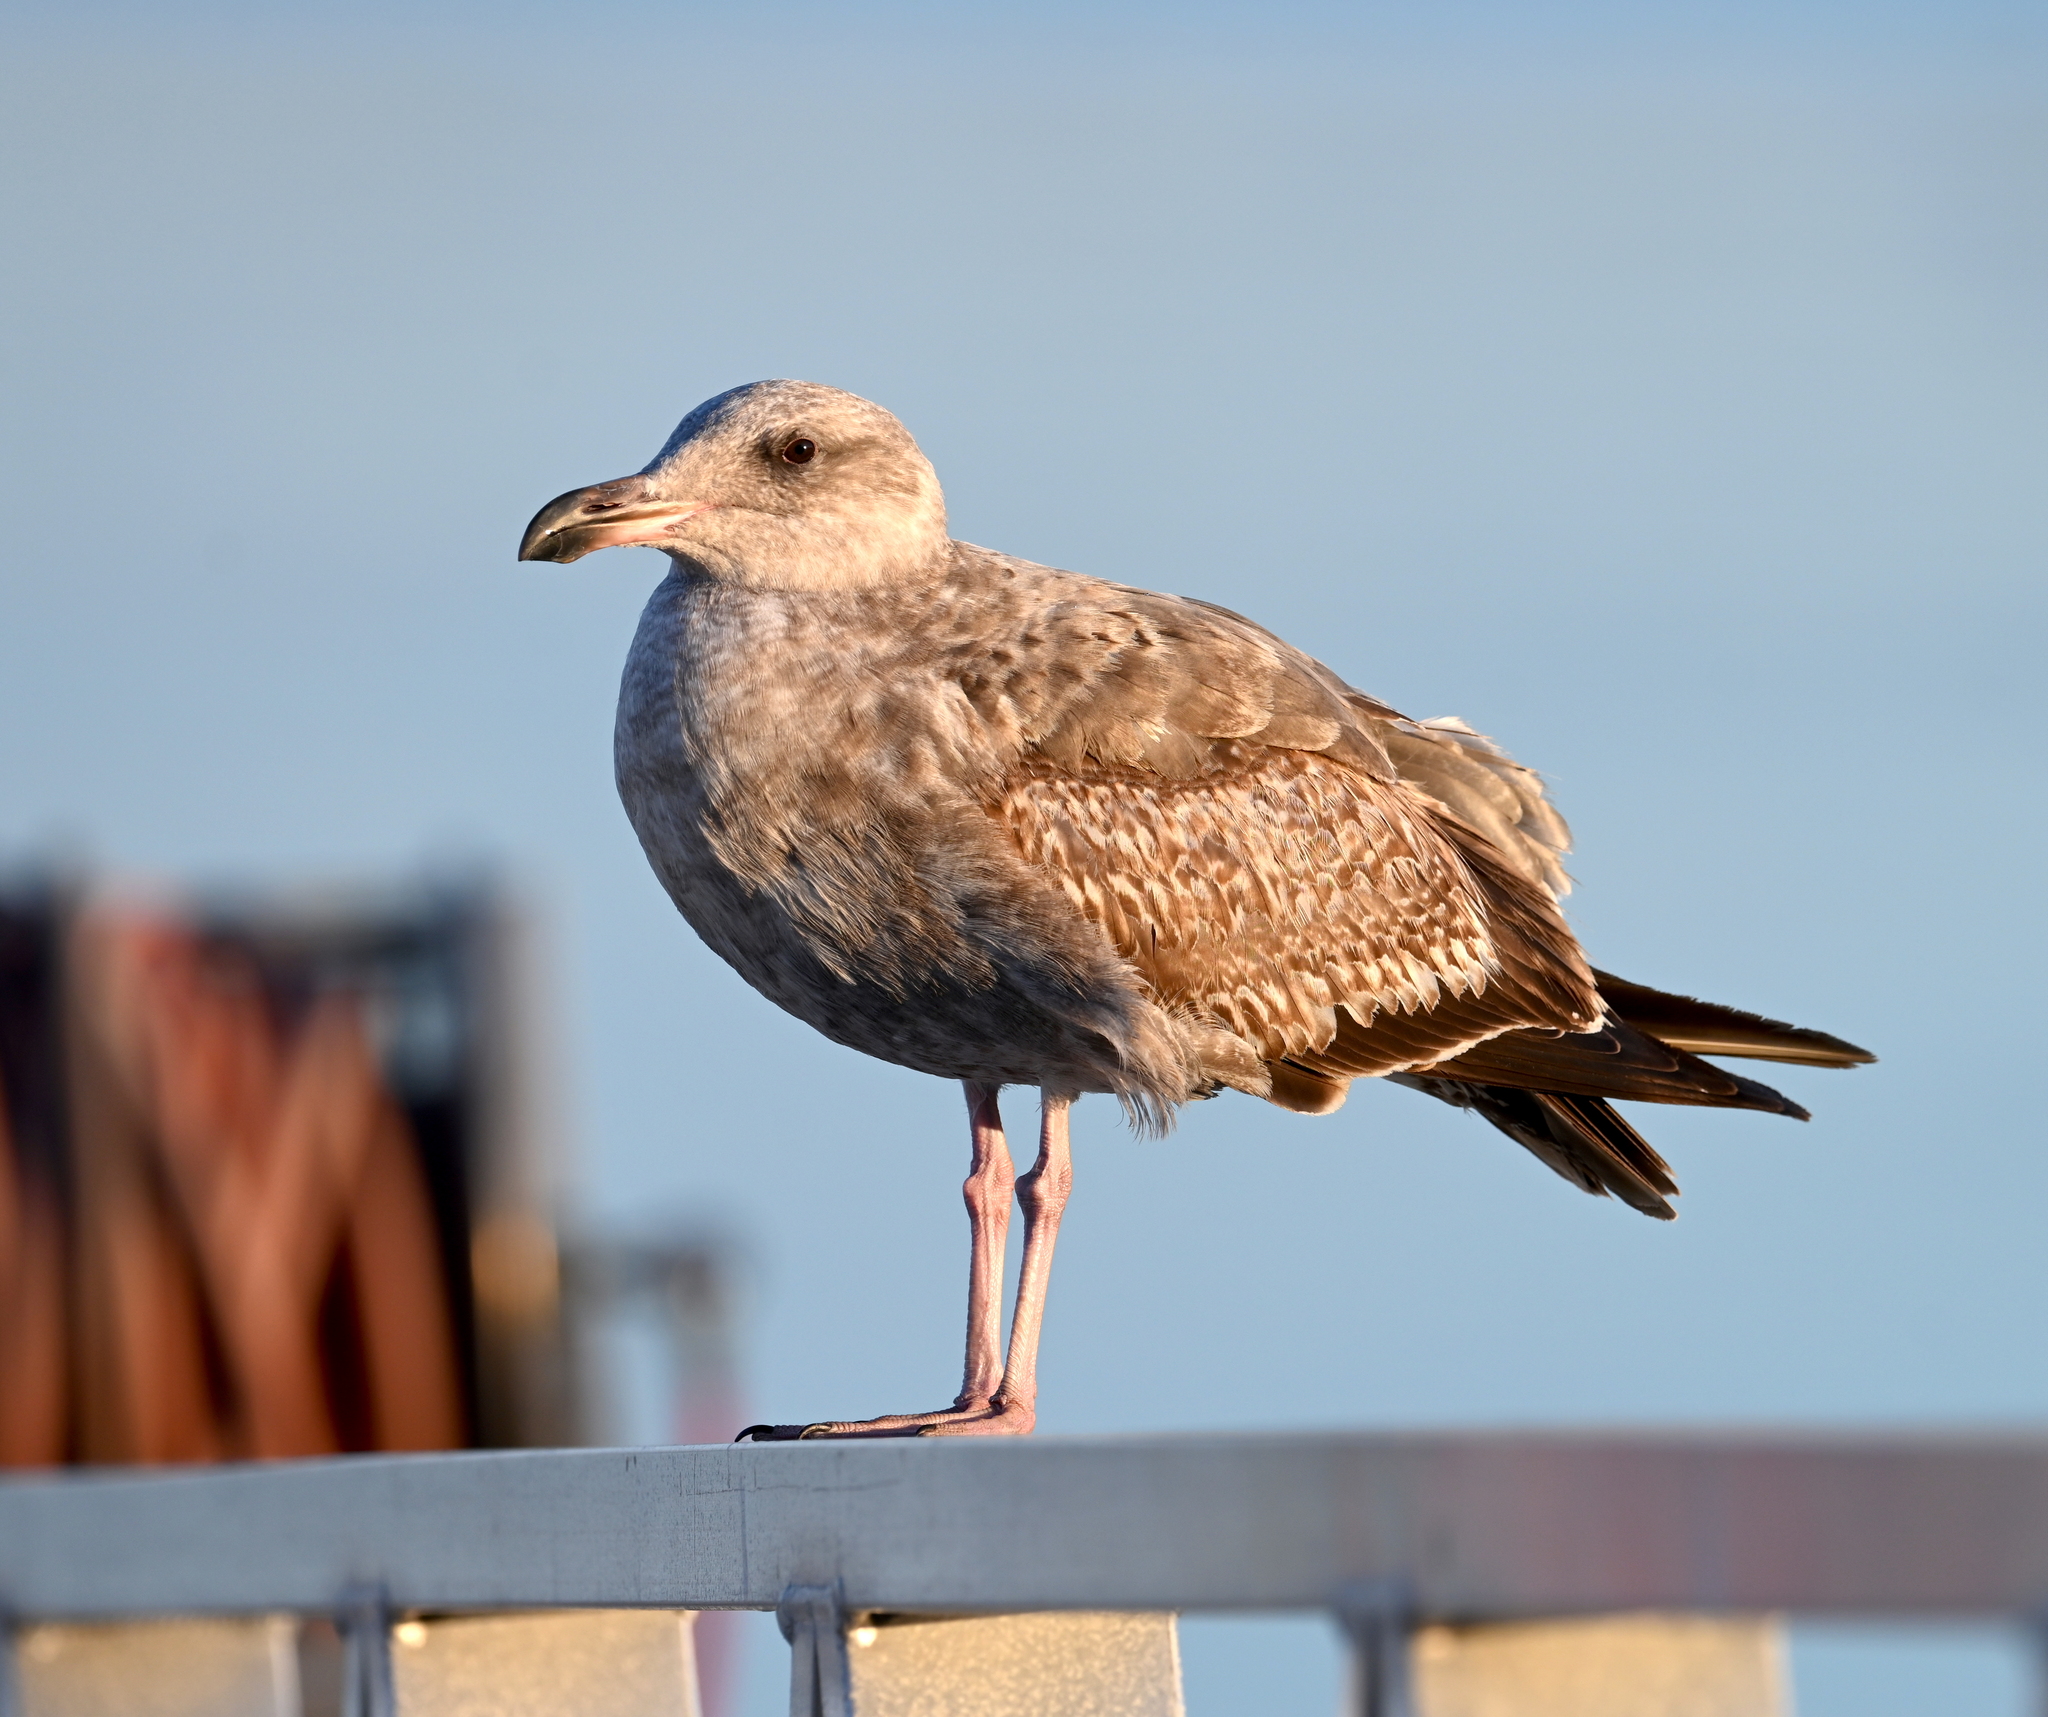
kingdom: Animalia
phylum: Chordata
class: Aves
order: Charadriiformes
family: Laridae
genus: Larus
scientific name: Larus occidentalis
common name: Western gull
